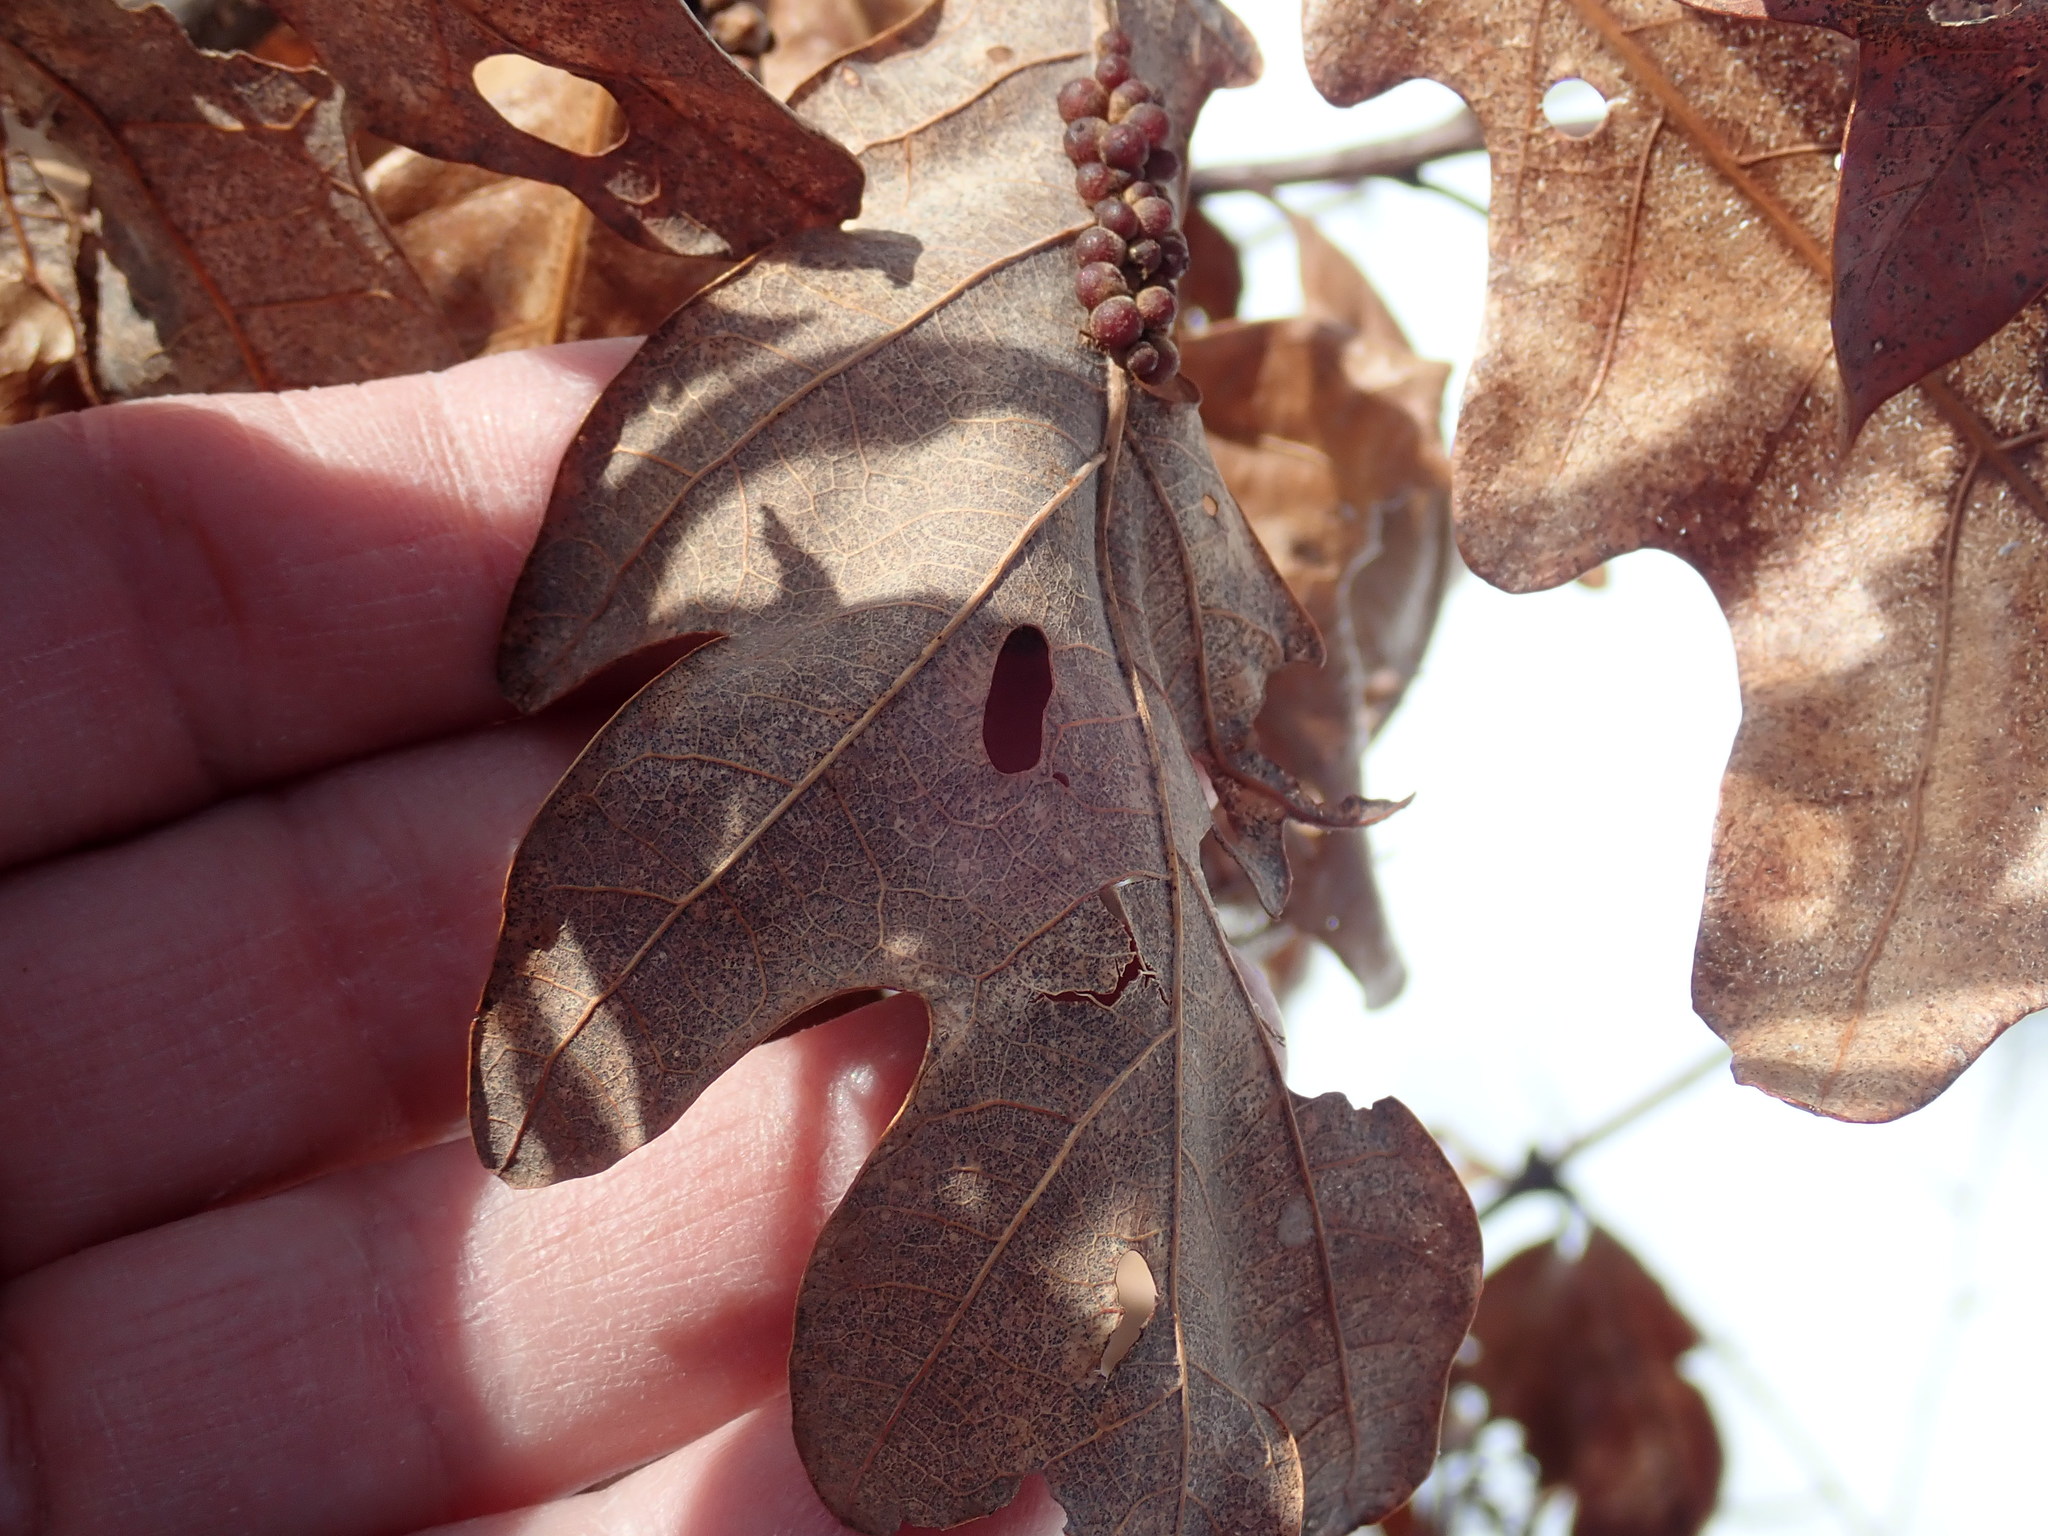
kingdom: Plantae
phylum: Tracheophyta
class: Magnoliopsida
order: Fagales
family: Fagaceae
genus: Quercus
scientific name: Quercus alba
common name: White oak
